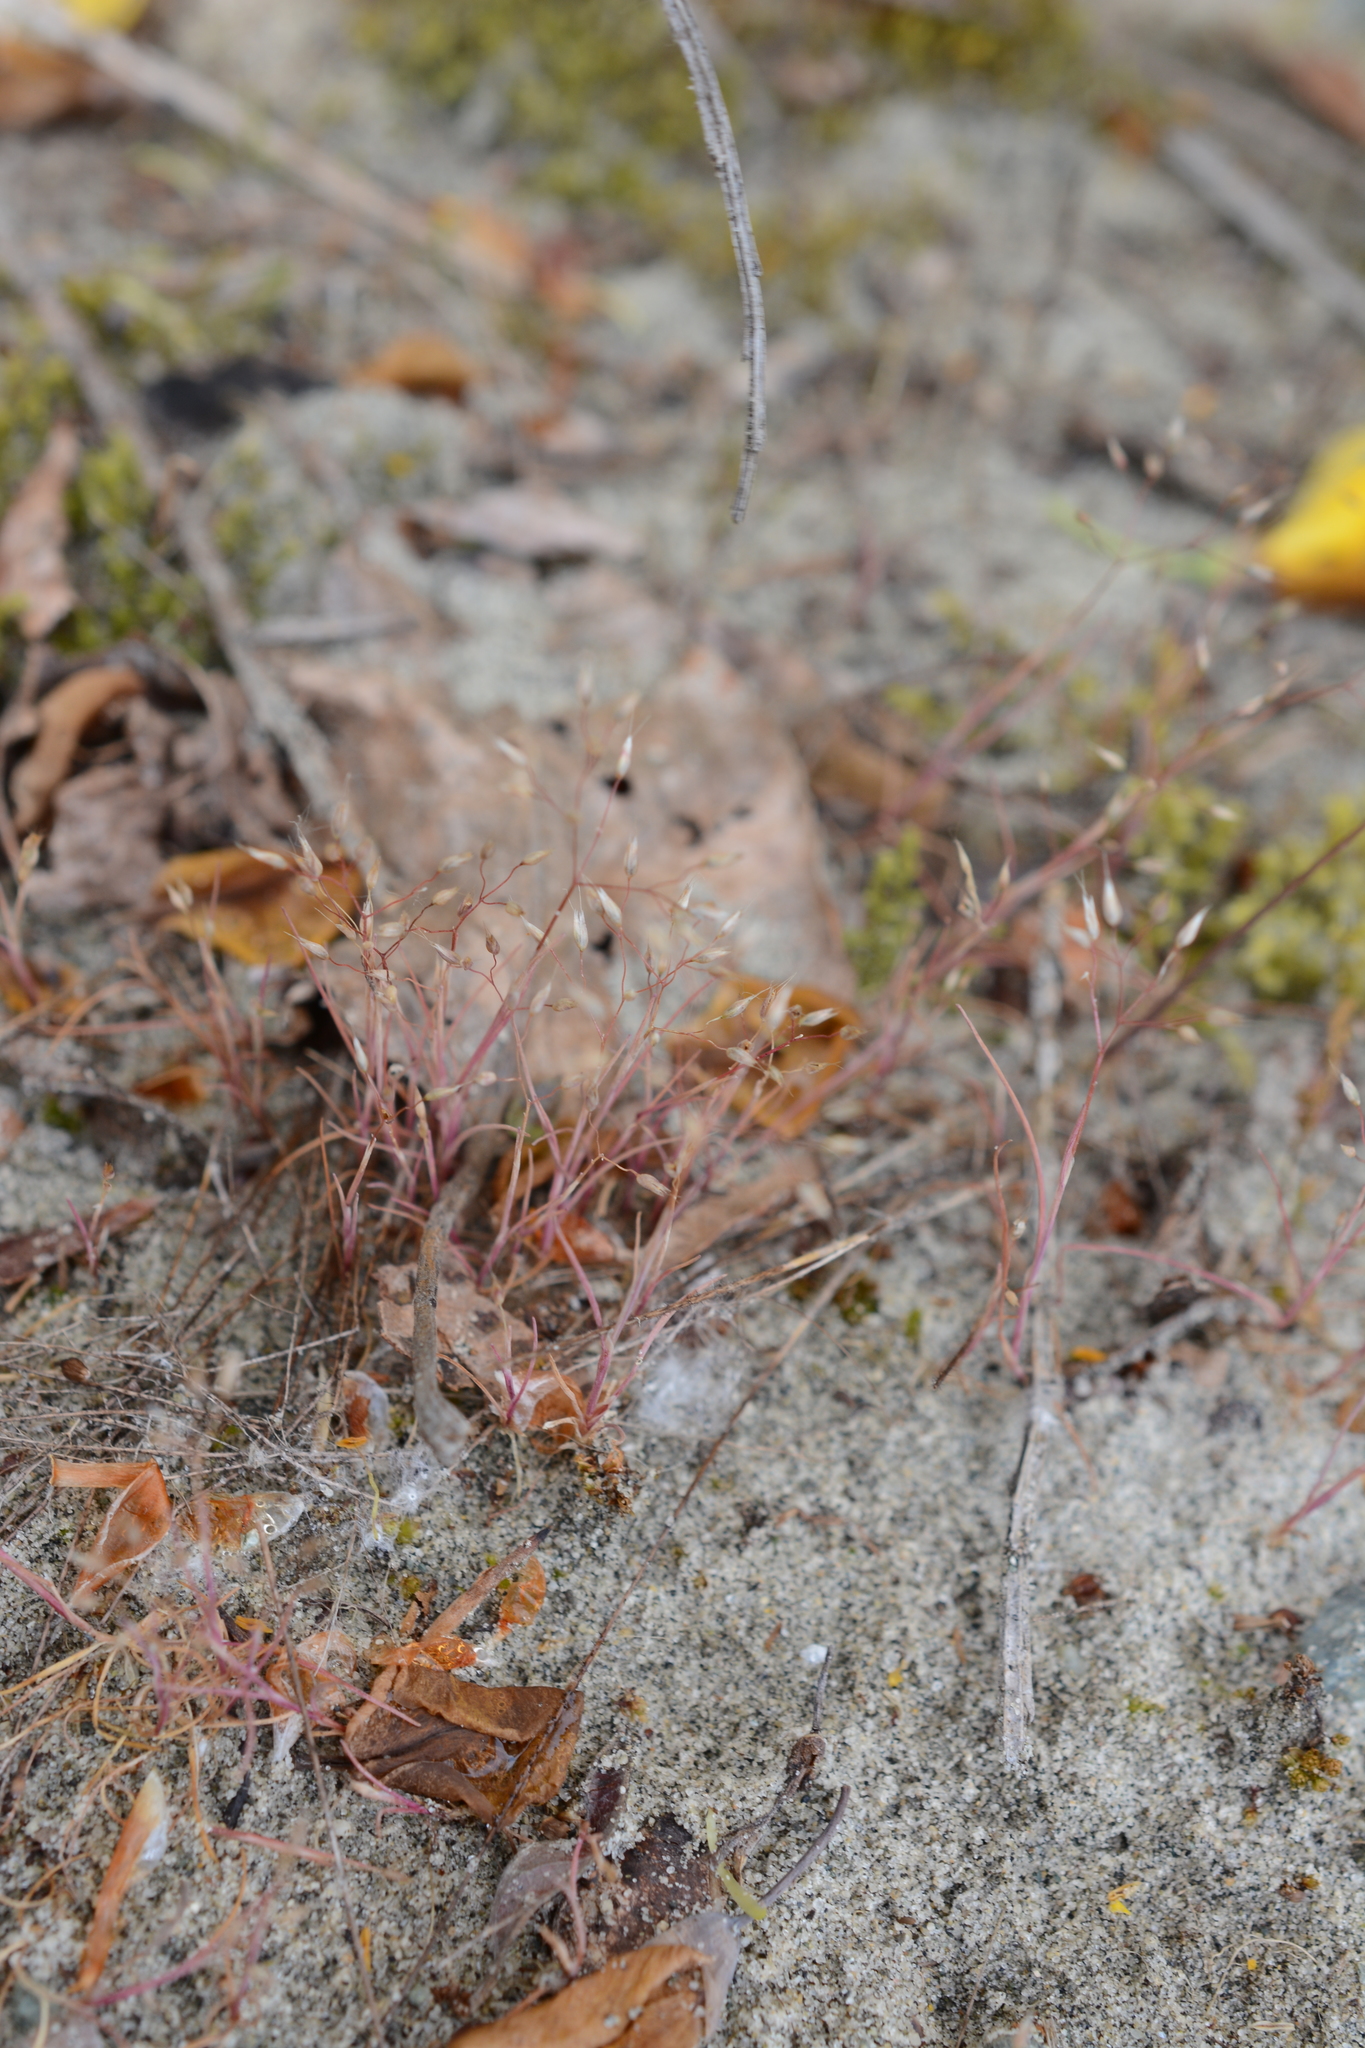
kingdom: Plantae
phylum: Tracheophyta
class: Liliopsida
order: Poales
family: Poaceae
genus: Aira
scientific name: Aira caryophyllea
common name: Silver hairgrass
